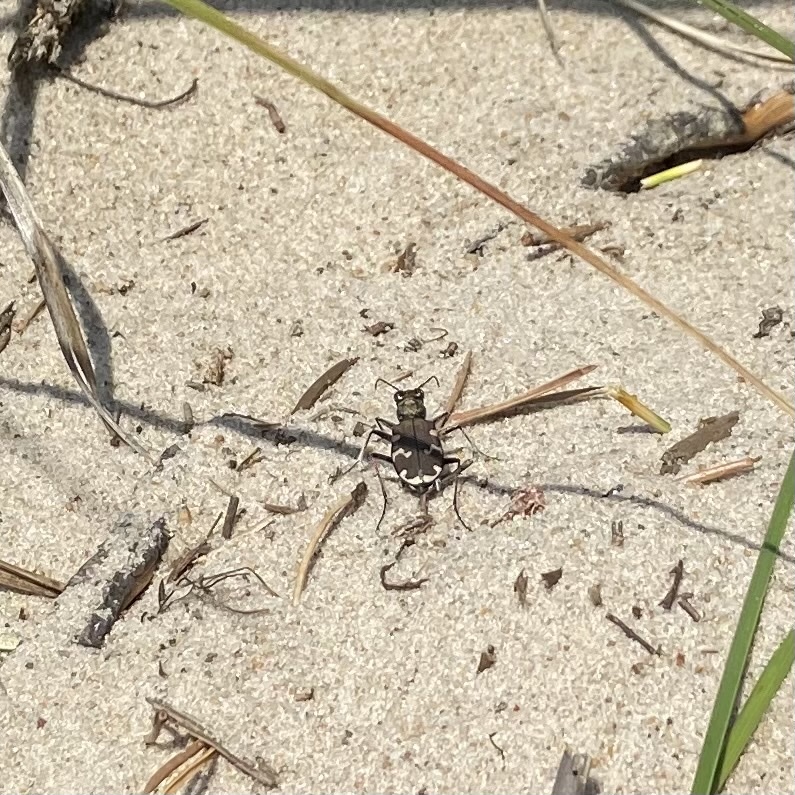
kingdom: Animalia
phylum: Arthropoda
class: Insecta
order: Coleoptera
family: Carabidae
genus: Cicindela
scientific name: Cicindela hybrida
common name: Northern dune tiger beetle
